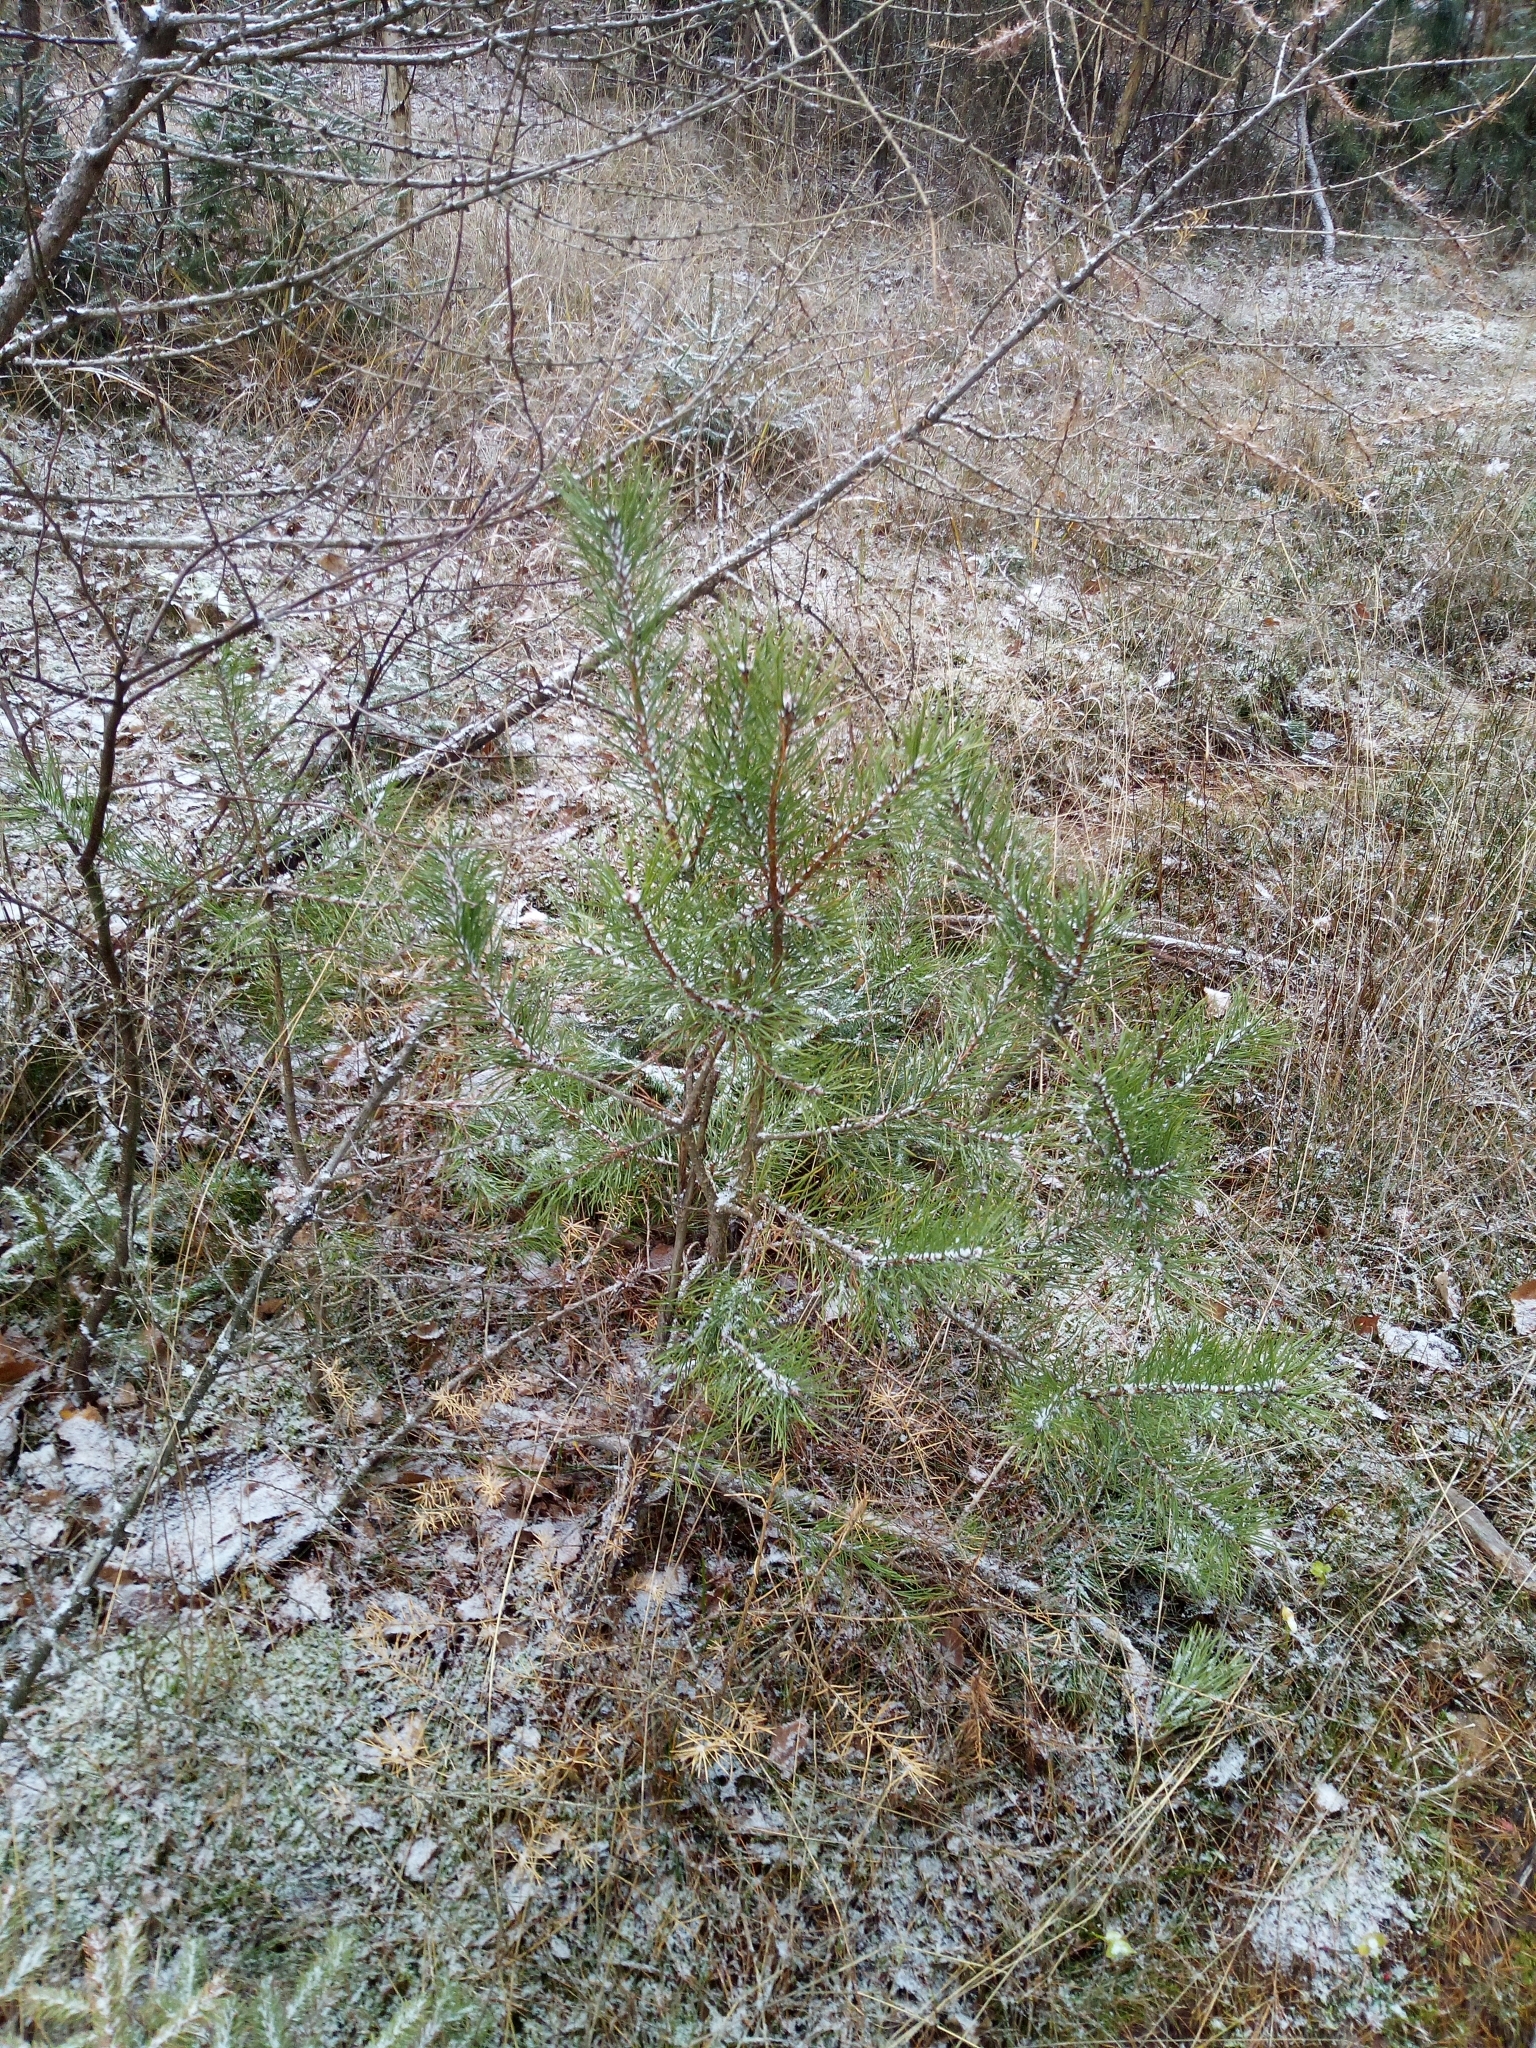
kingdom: Plantae
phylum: Tracheophyta
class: Pinopsida
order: Pinales
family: Pinaceae
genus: Pinus
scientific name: Pinus sylvestris
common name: Scots pine
